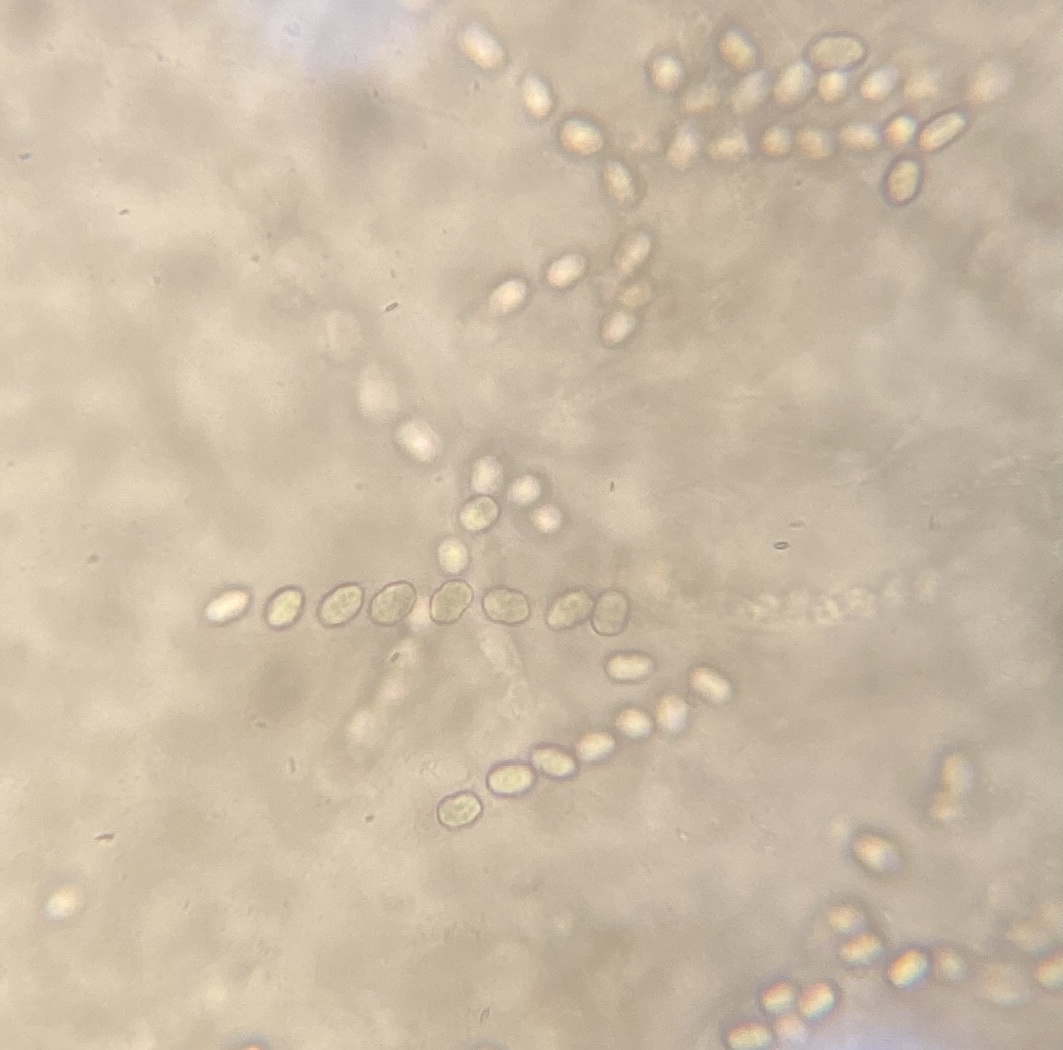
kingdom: Fungi
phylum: Ascomycota
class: Sordariomycetes
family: Thyridiaceae
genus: Thyronectria
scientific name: Thyronectria austroamericana
